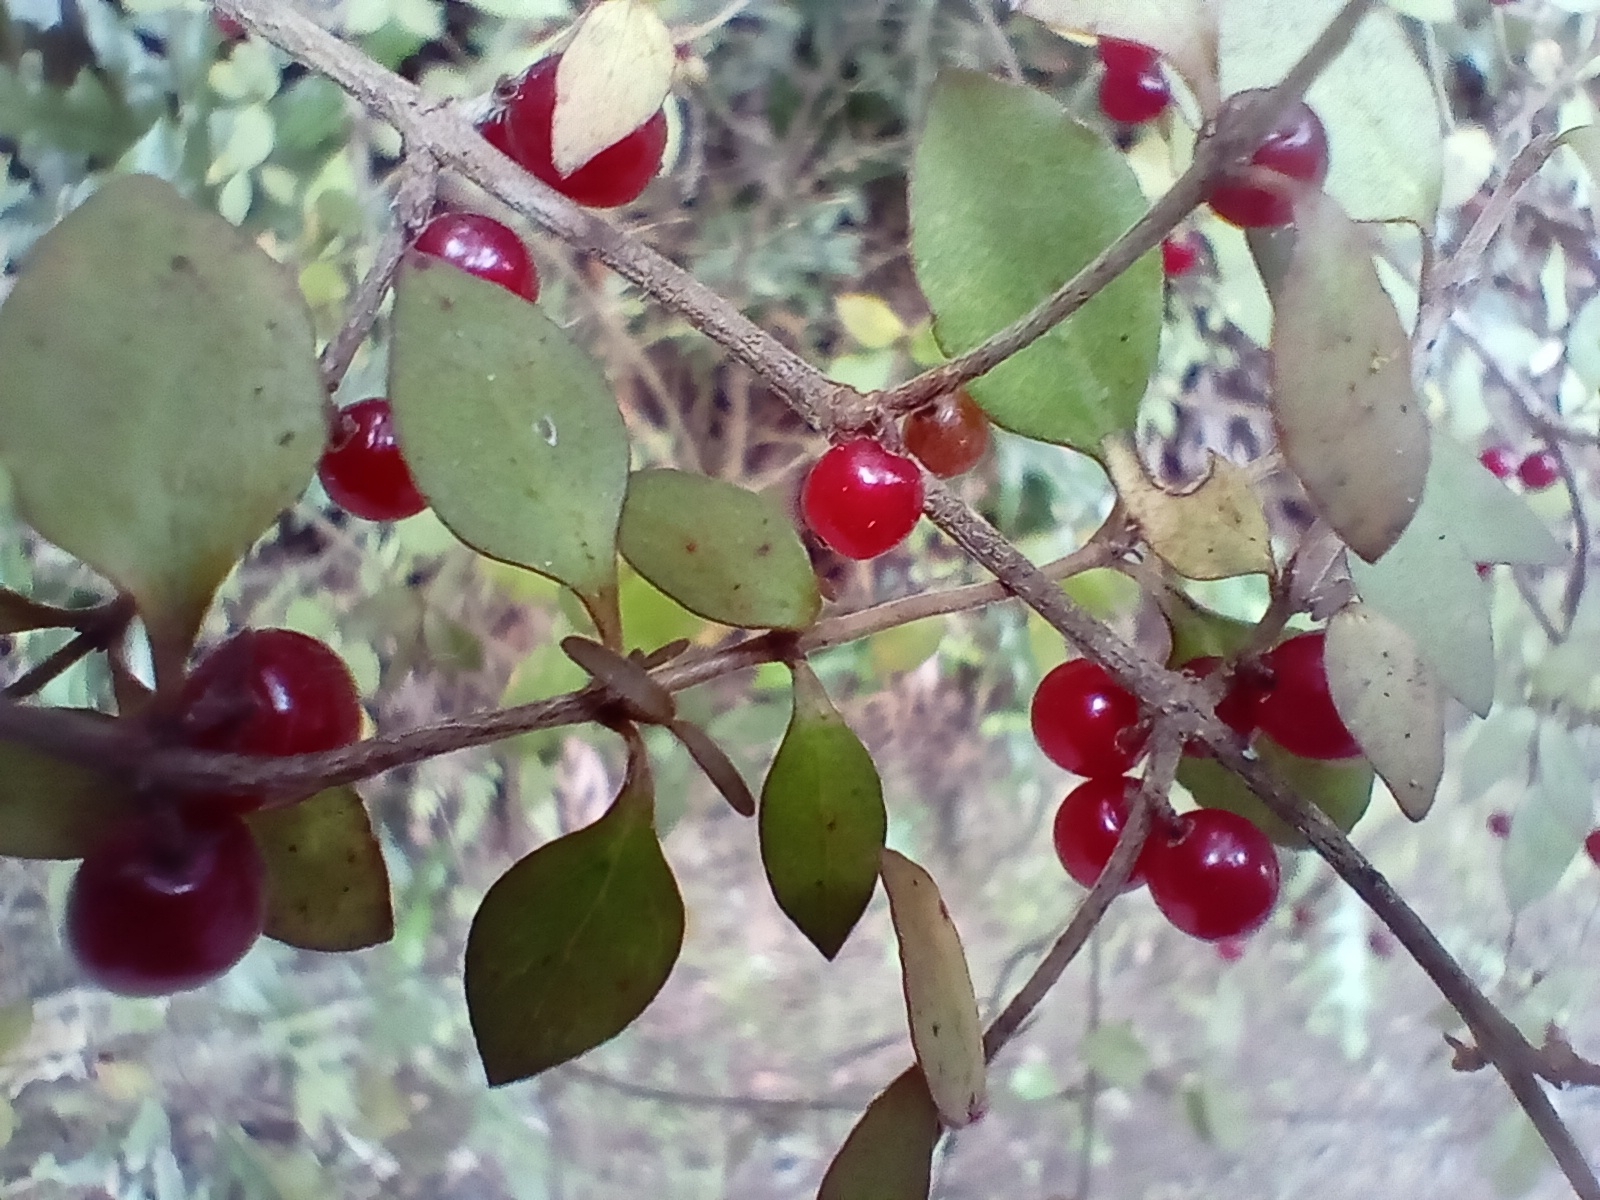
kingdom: Plantae
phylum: Tracheophyta
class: Magnoliopsida
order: Gentianales
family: Rubiaceae
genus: Coprosma
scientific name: Coprosma rhamnoides
